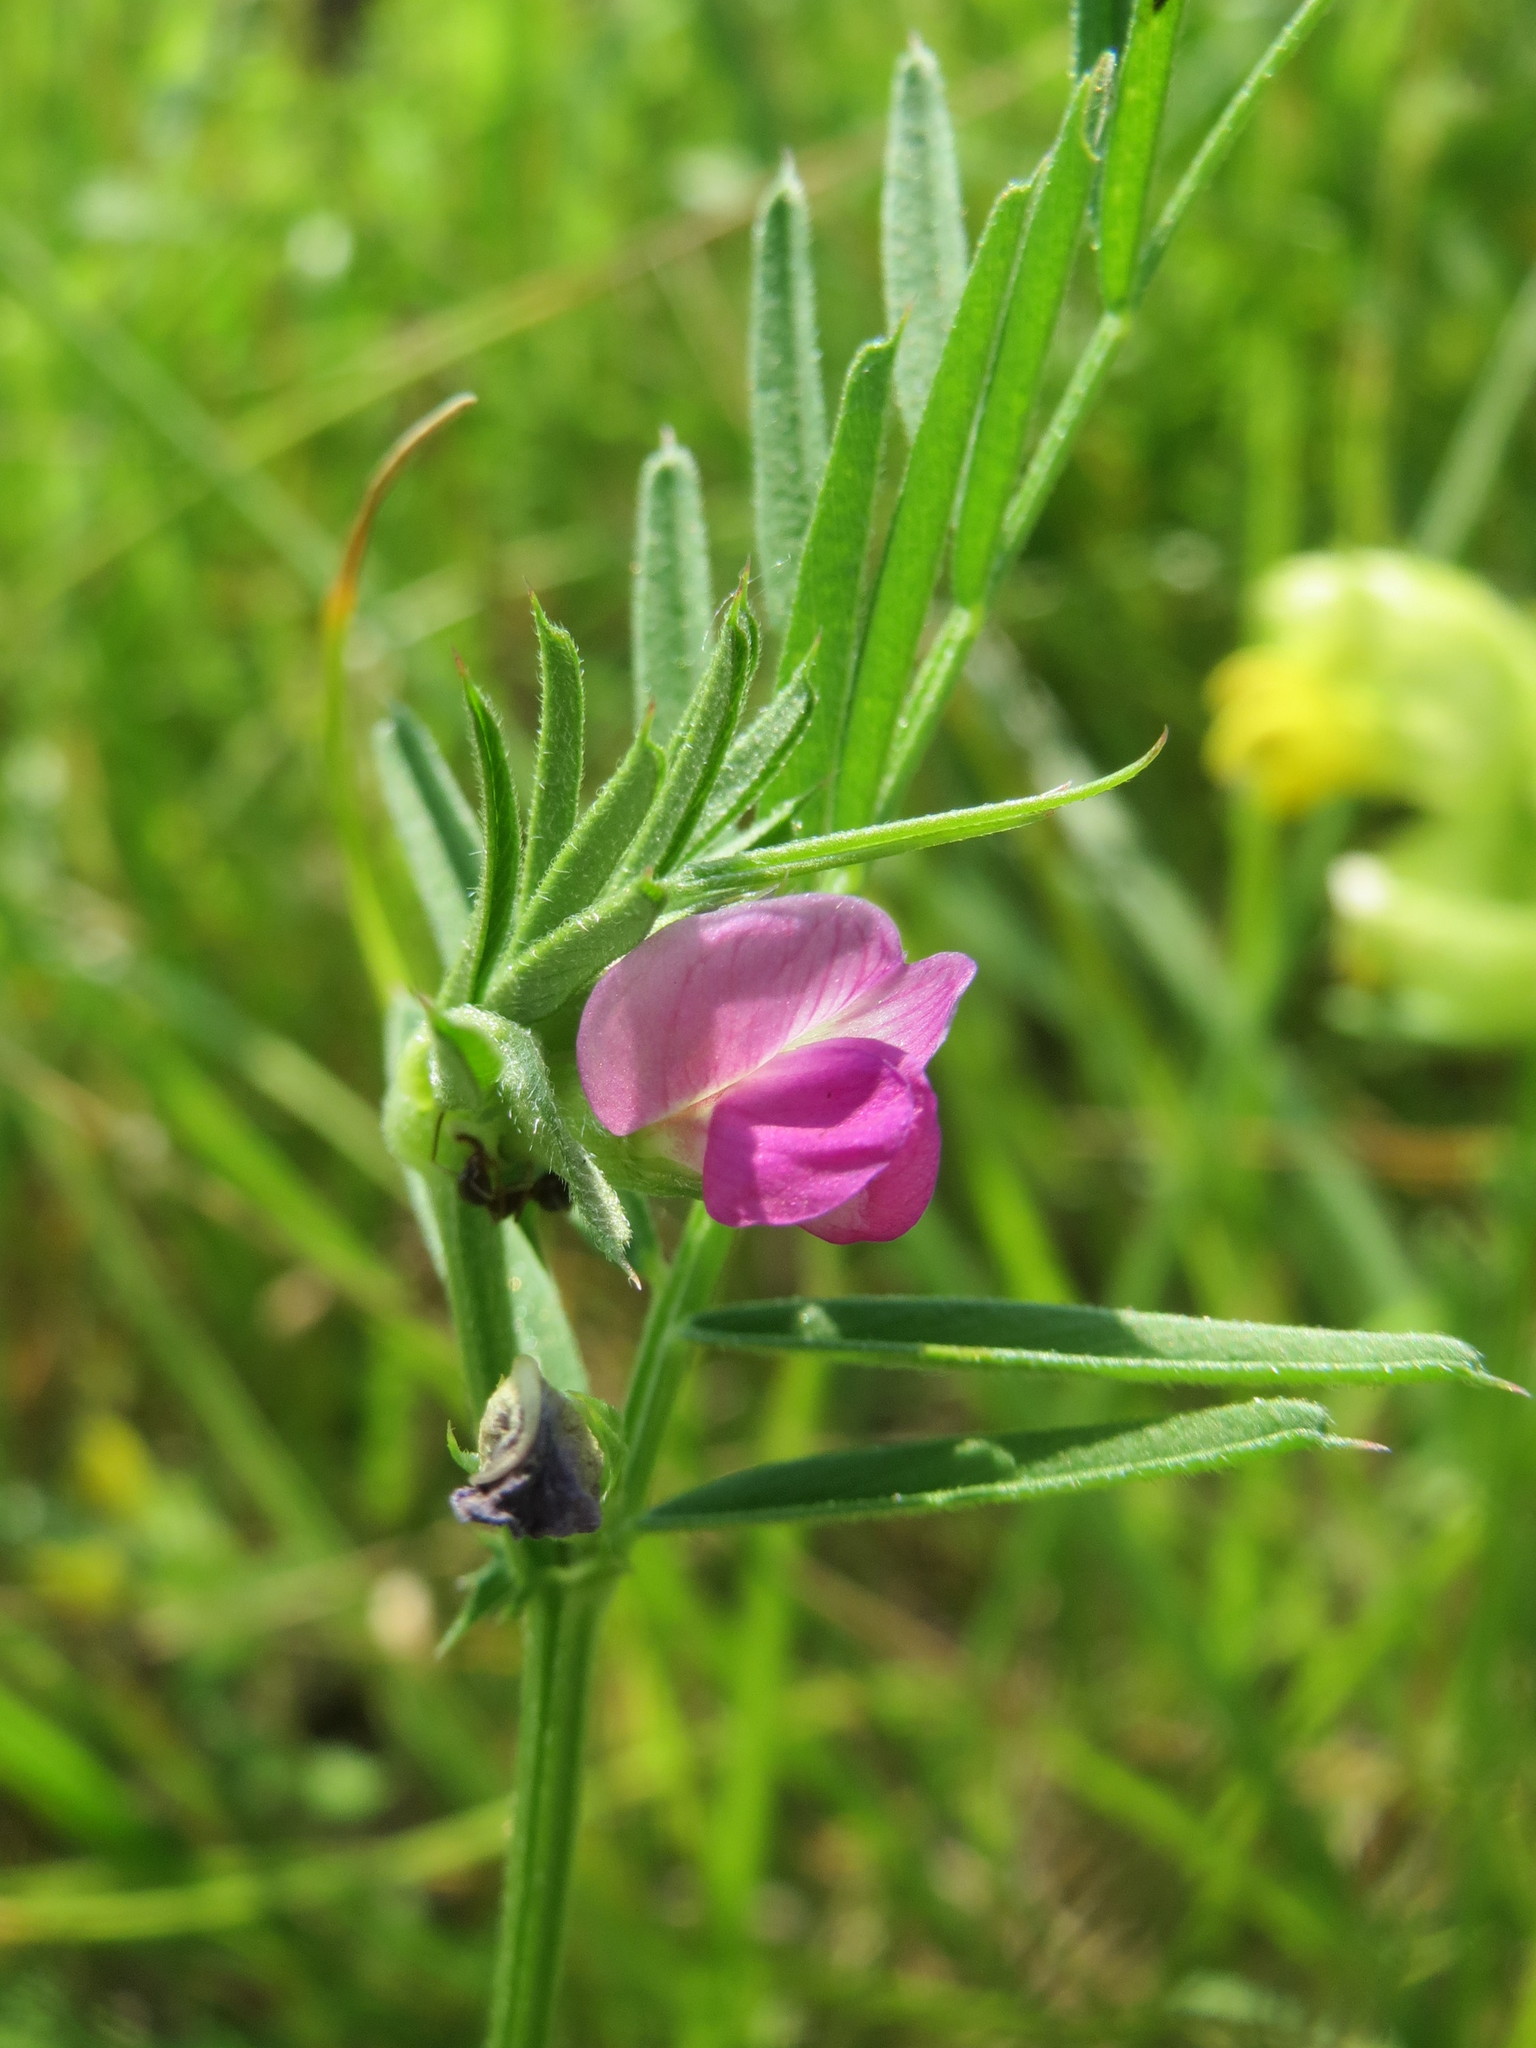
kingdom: Plantae
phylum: Tracheophyta
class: Magnoliopsida
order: Fabales
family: Fabaceae
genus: Vicia
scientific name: Vicia sativa
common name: Garden vetch
